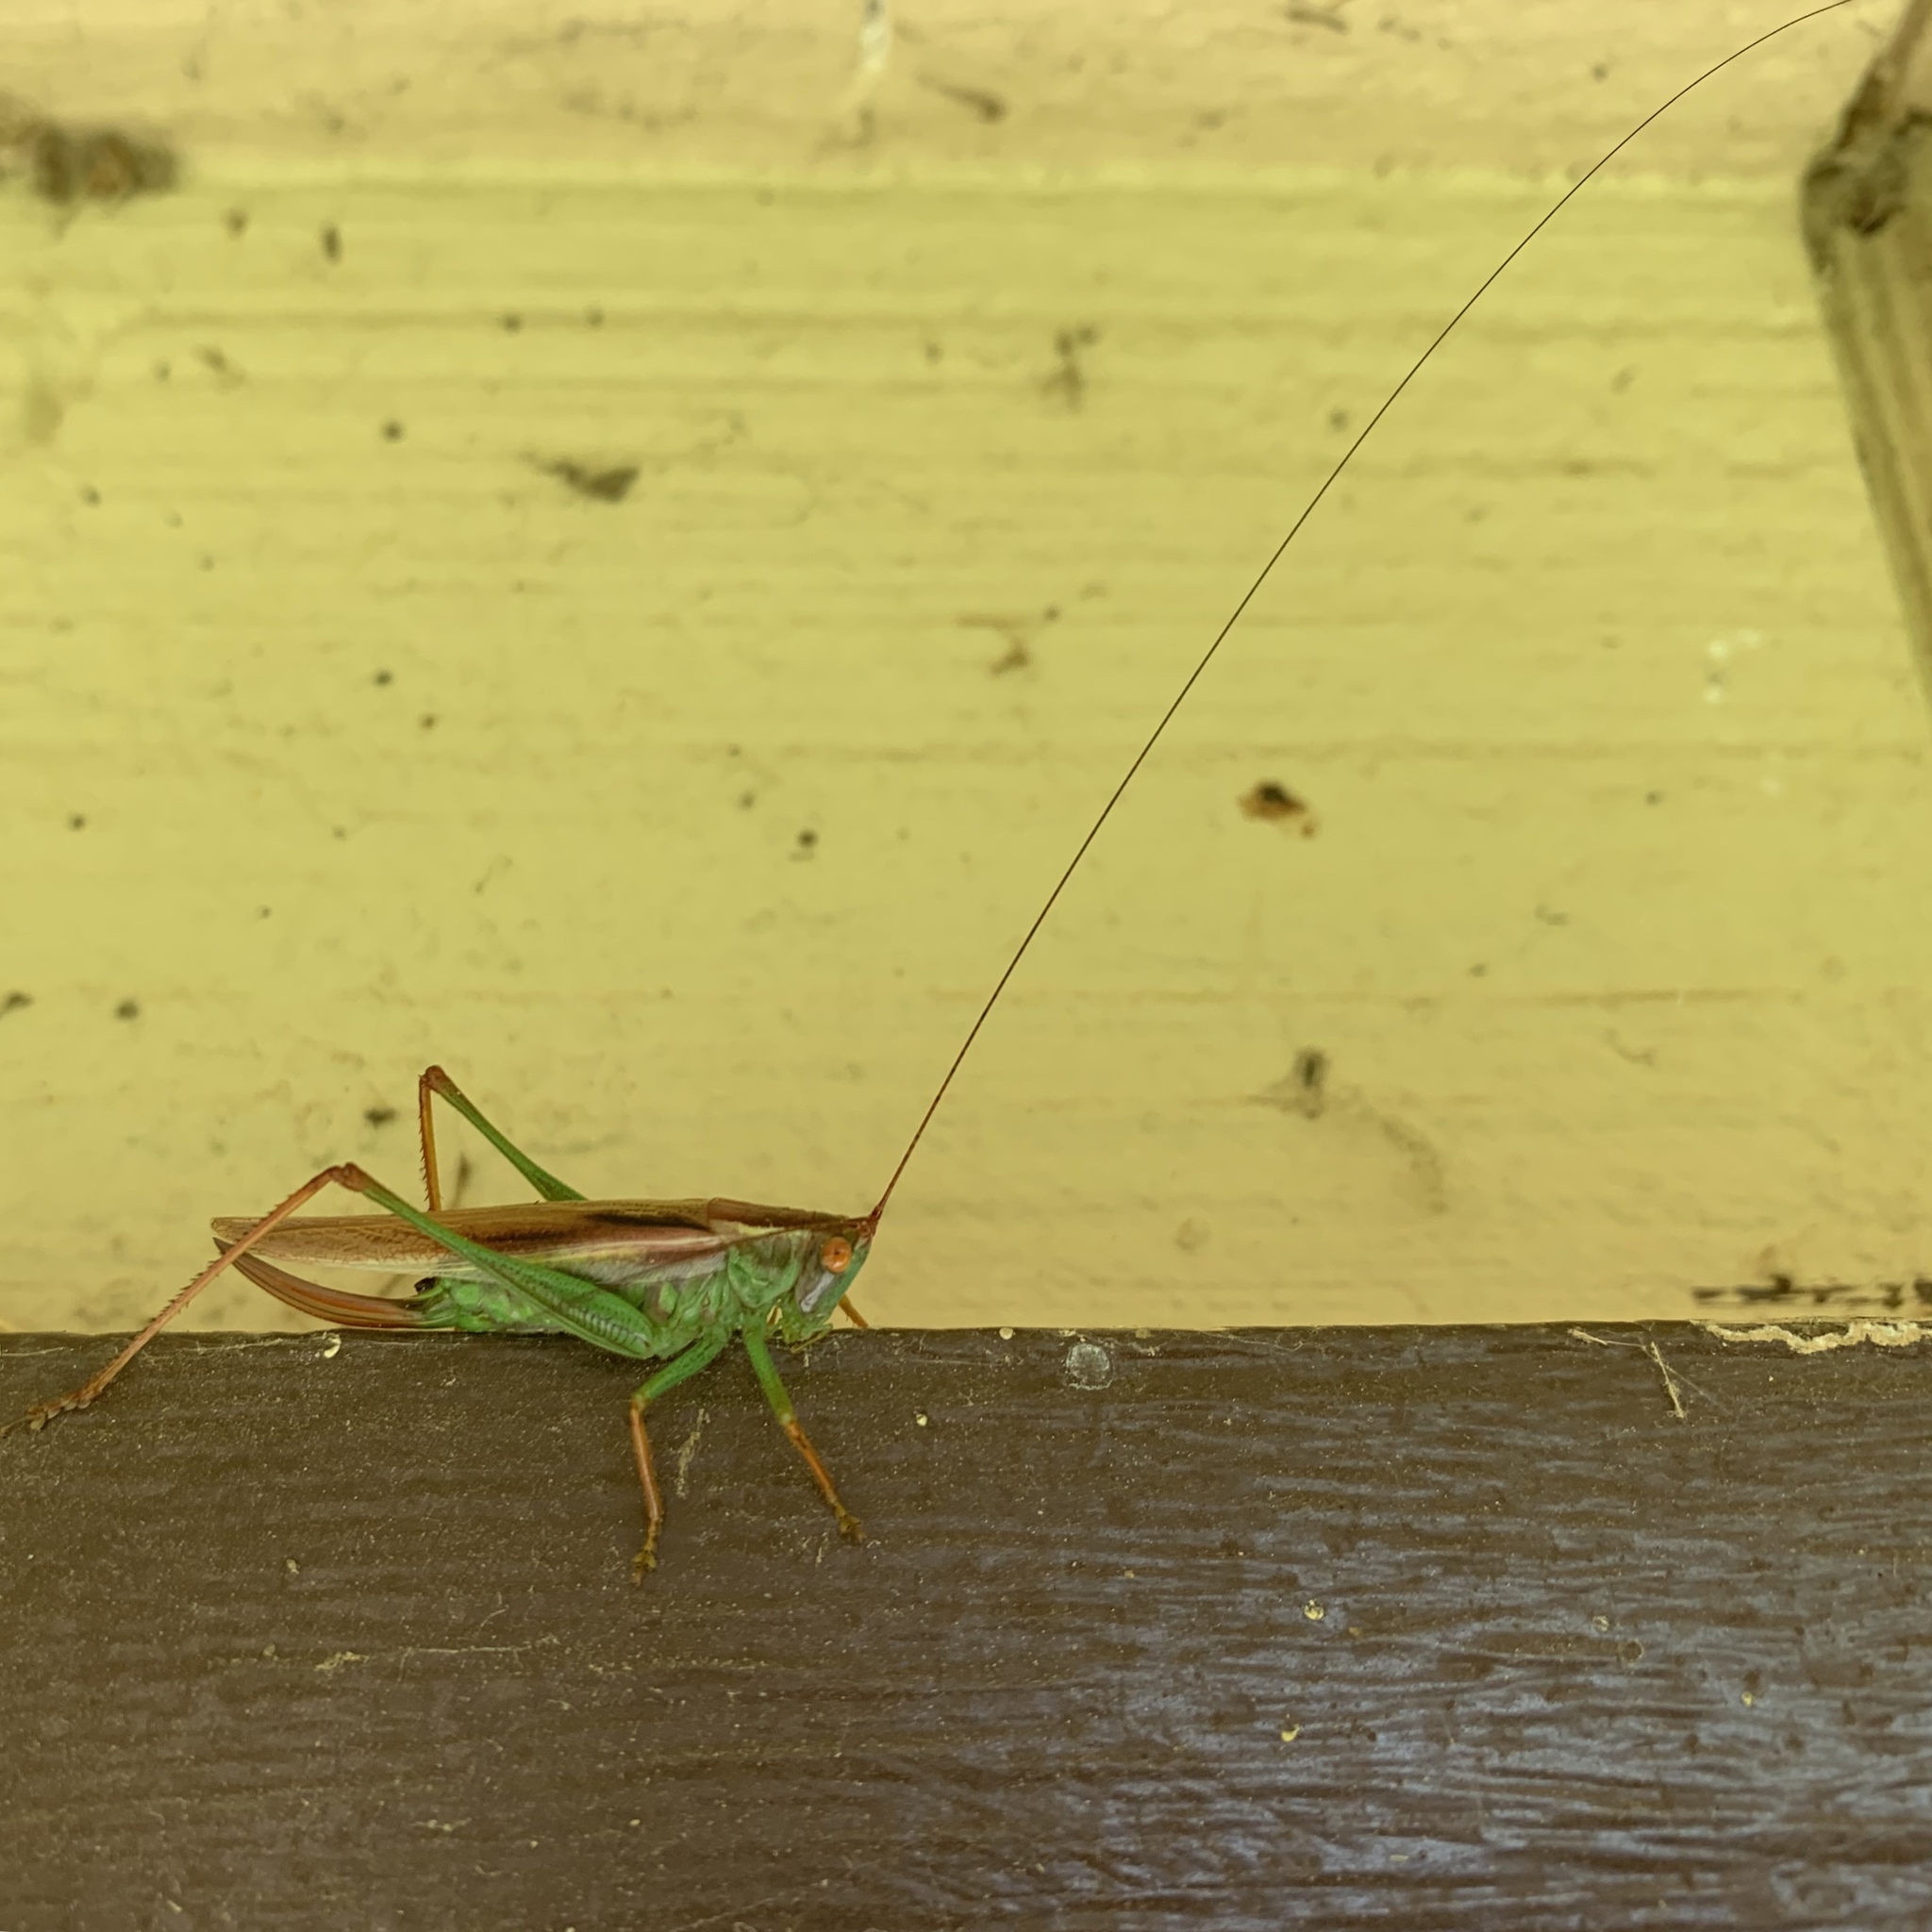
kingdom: Animalia
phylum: Arthropoda
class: Insecta
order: Orthoptera
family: Tettigoniidae
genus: Orchelimum
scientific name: Orchelimum minor
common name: Lesser pine meadow katydid
